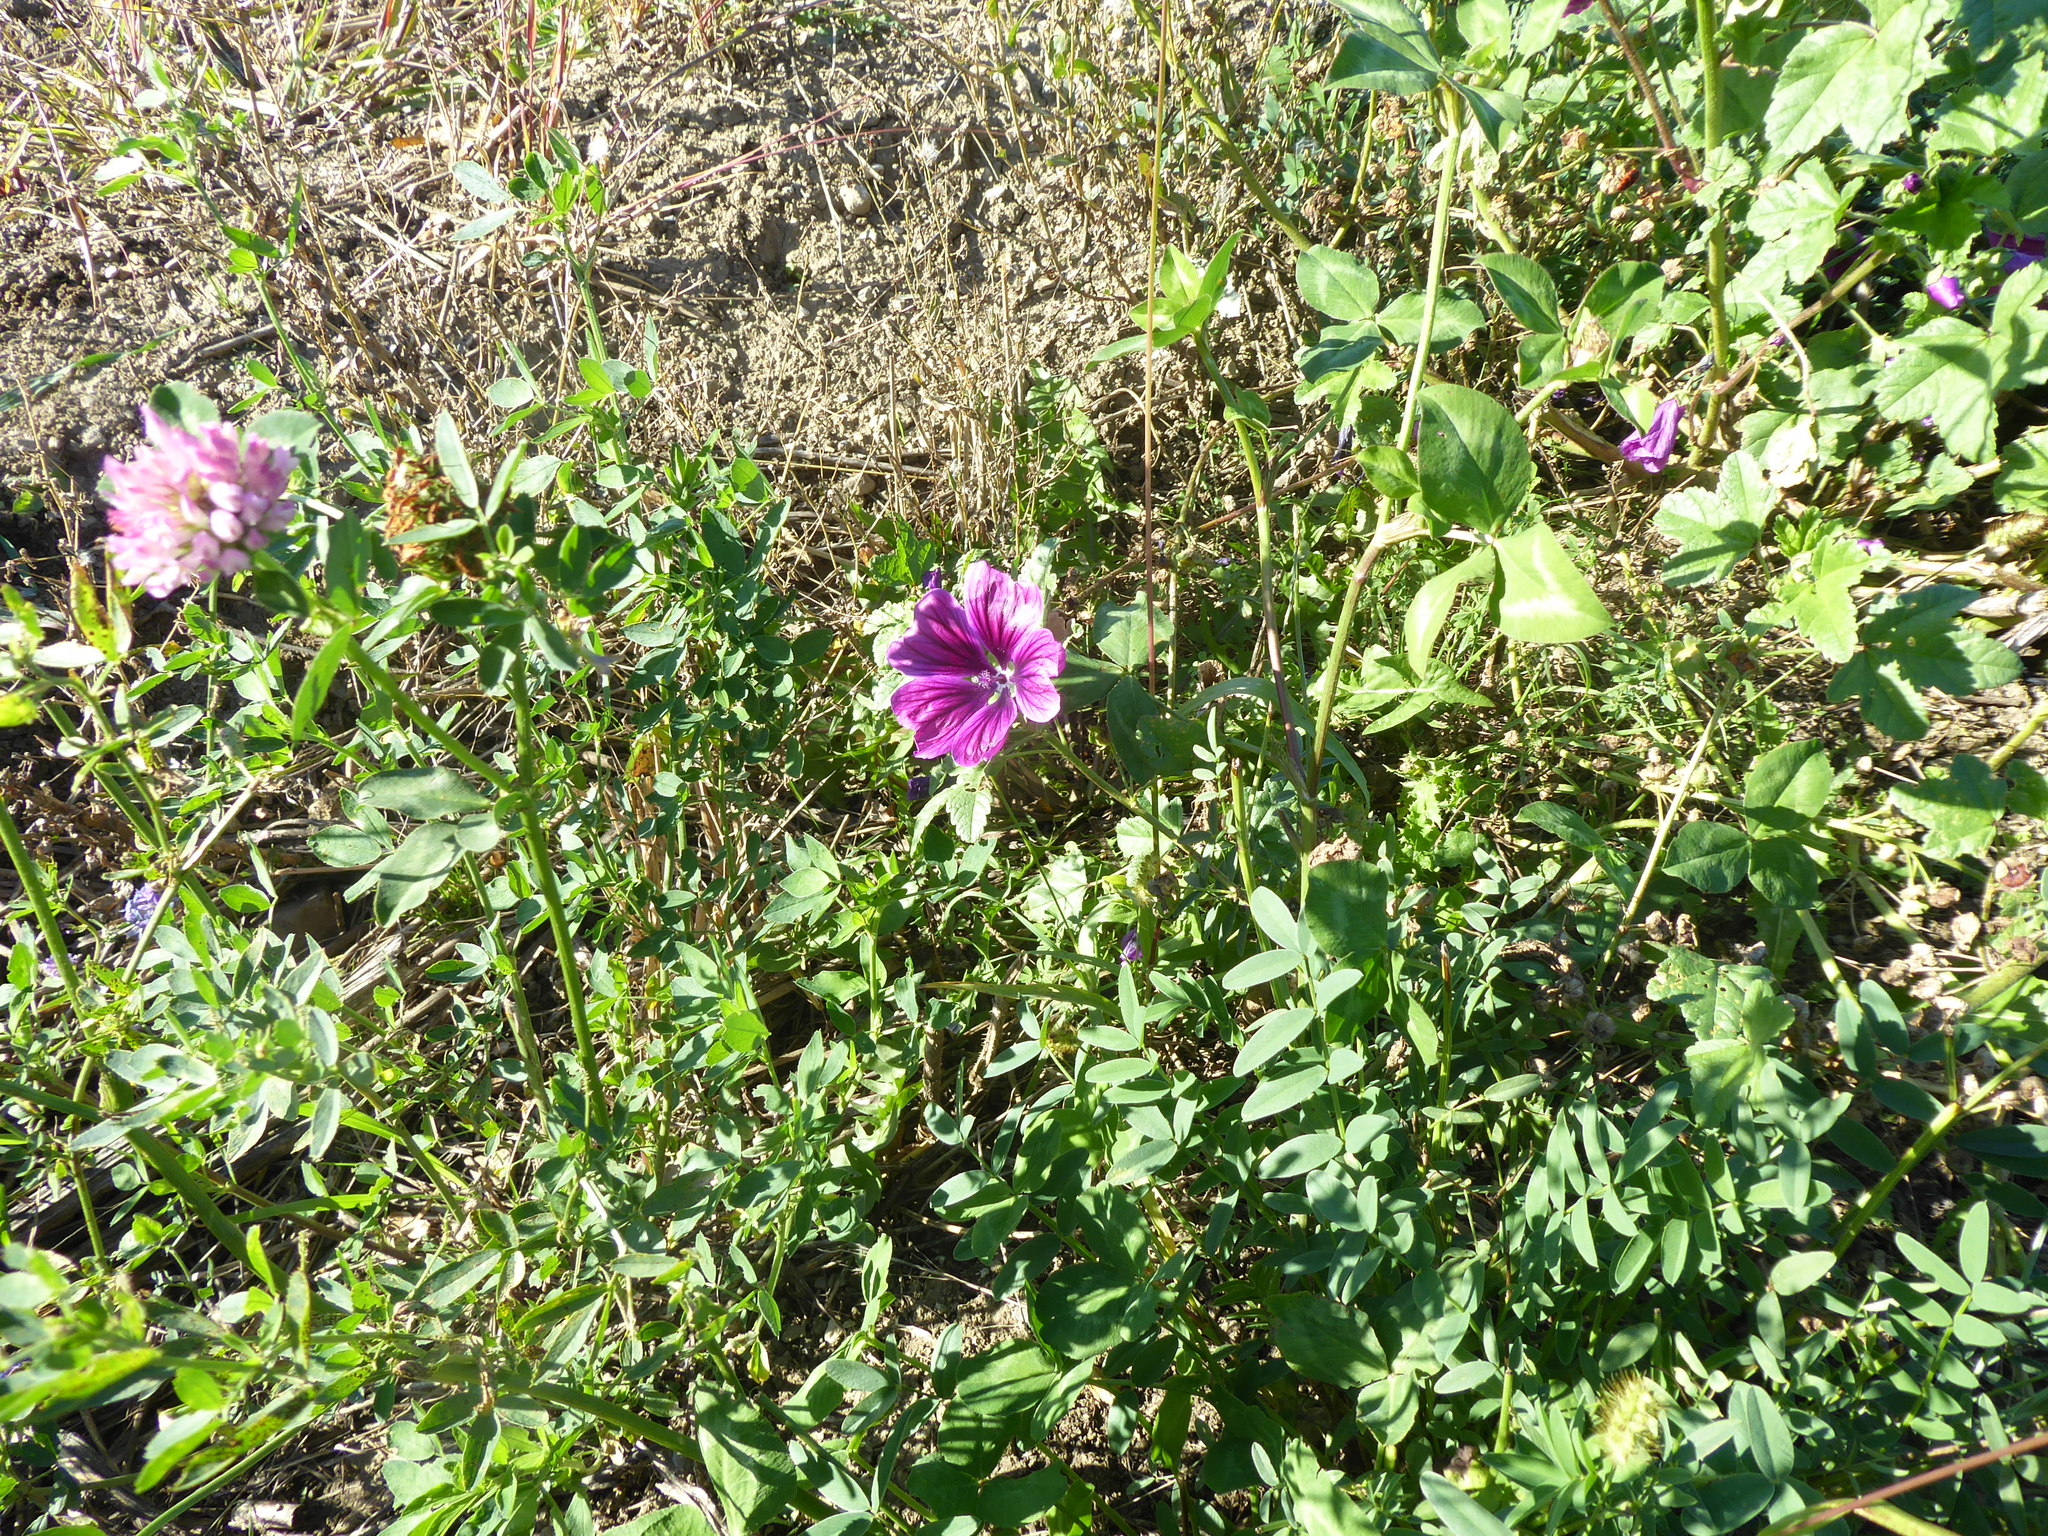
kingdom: Plantae
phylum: Tracheophyta
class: Magnoliopsida
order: Malvales
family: Malvaceae
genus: Malva
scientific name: Malva sylvestris
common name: Common mallow
